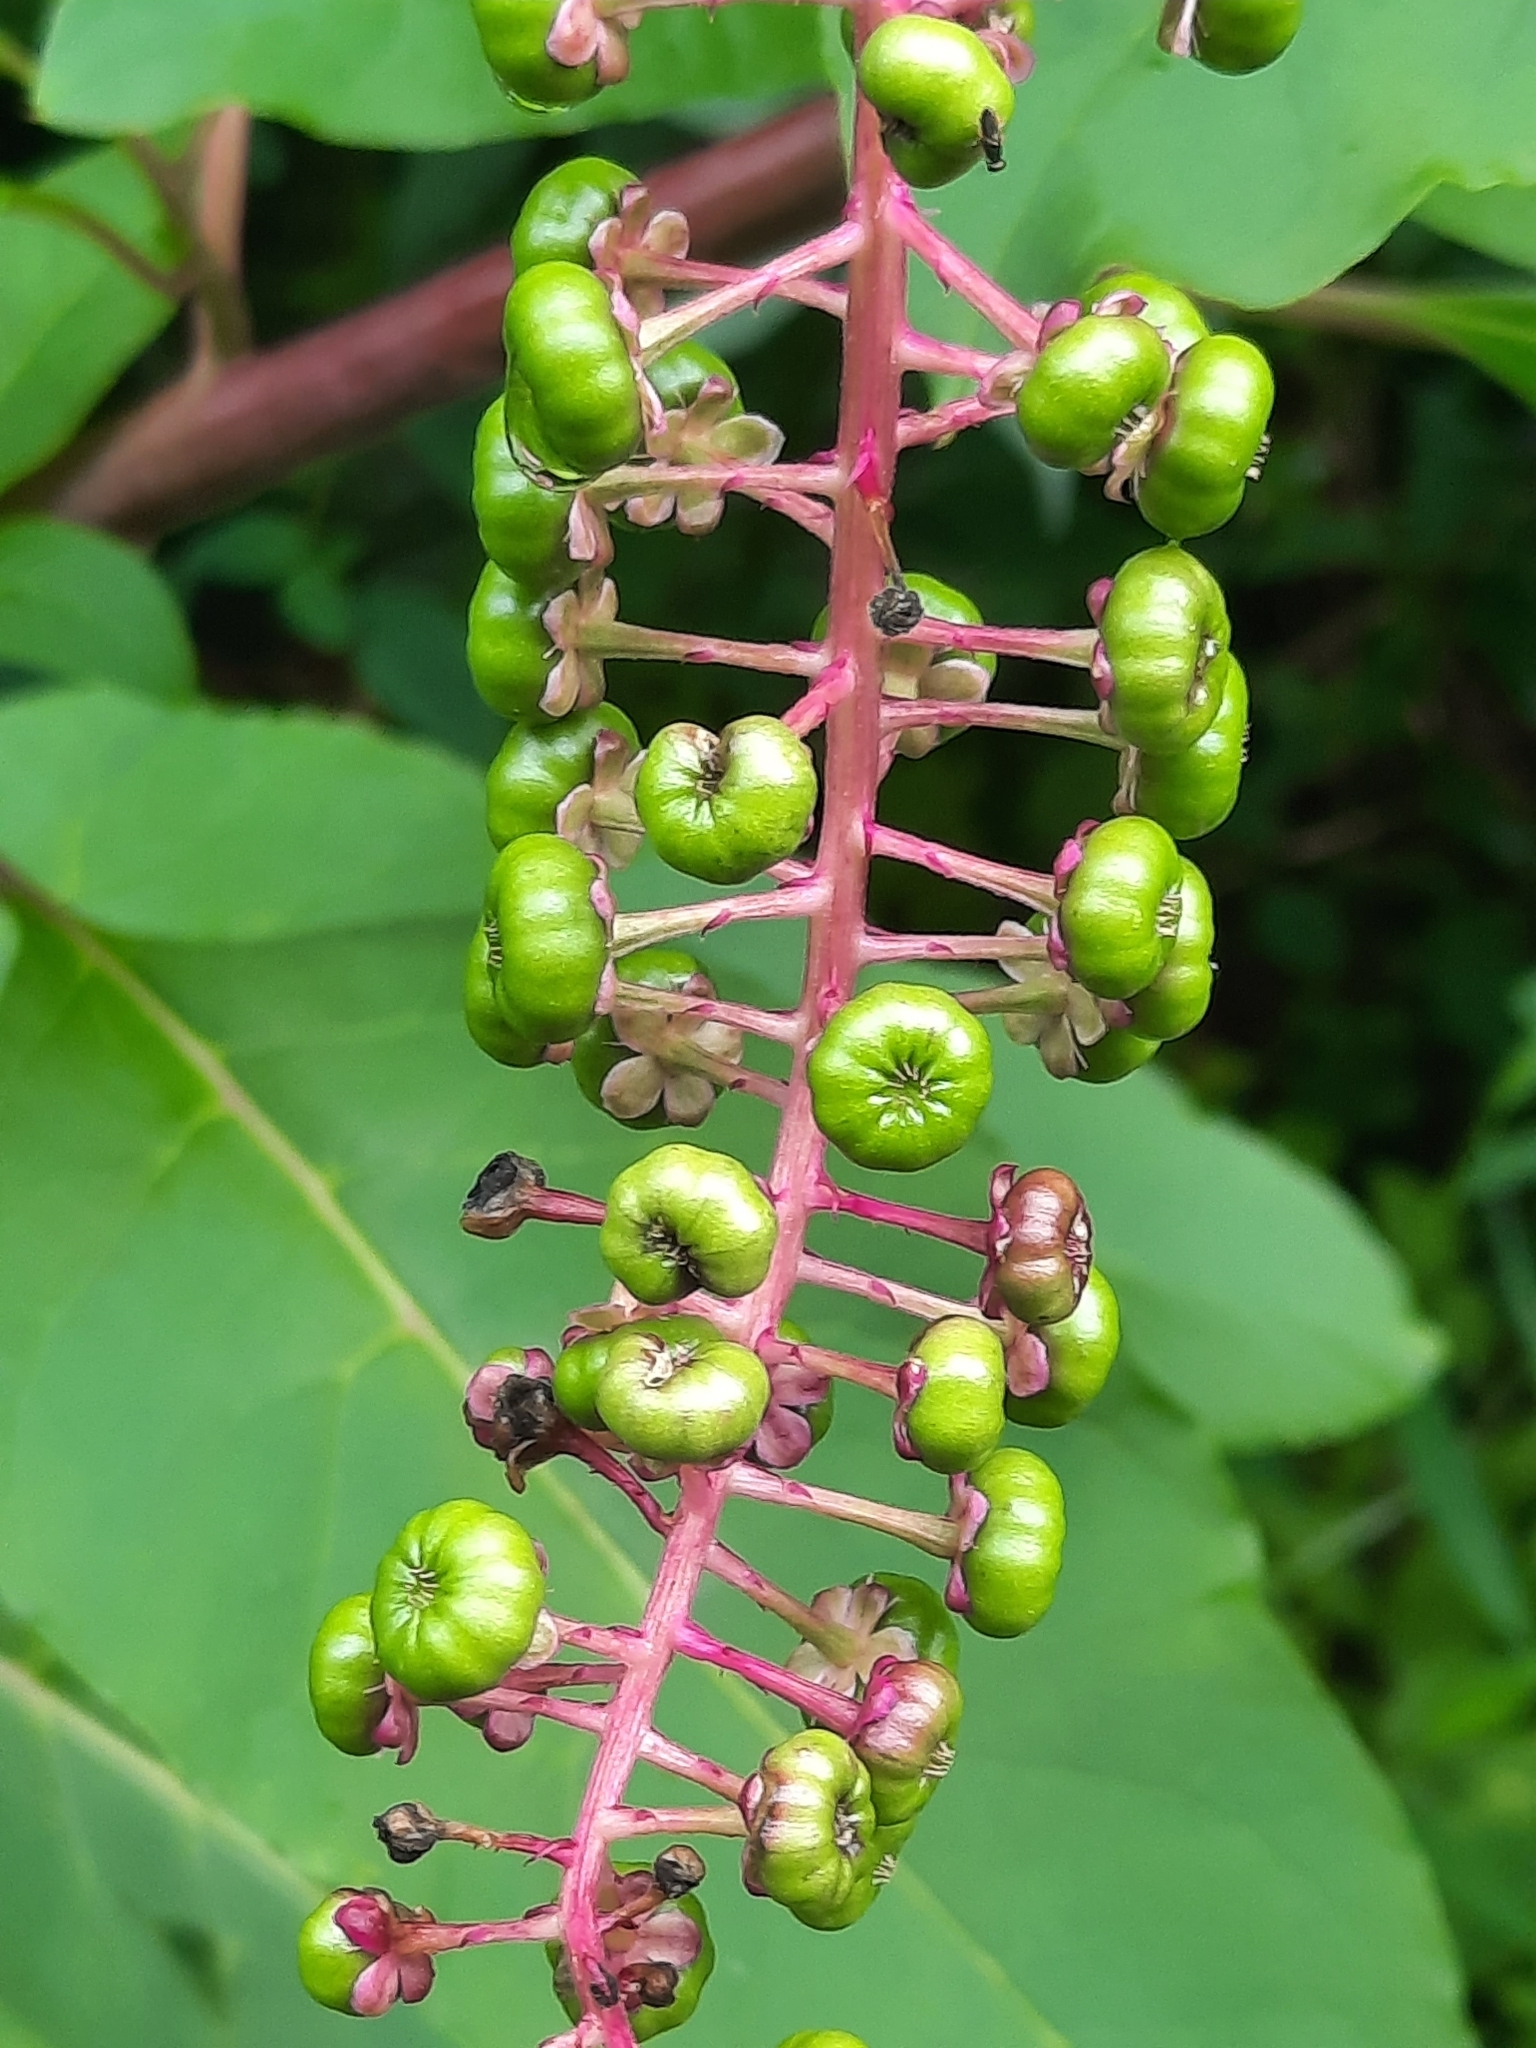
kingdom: Plantae
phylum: Tracheophyta
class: Magnoliopsida
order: Caryophyllales
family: Phytolaccaceae
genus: Phytolacca
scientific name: Phytolacca americana
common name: American pokeweed
